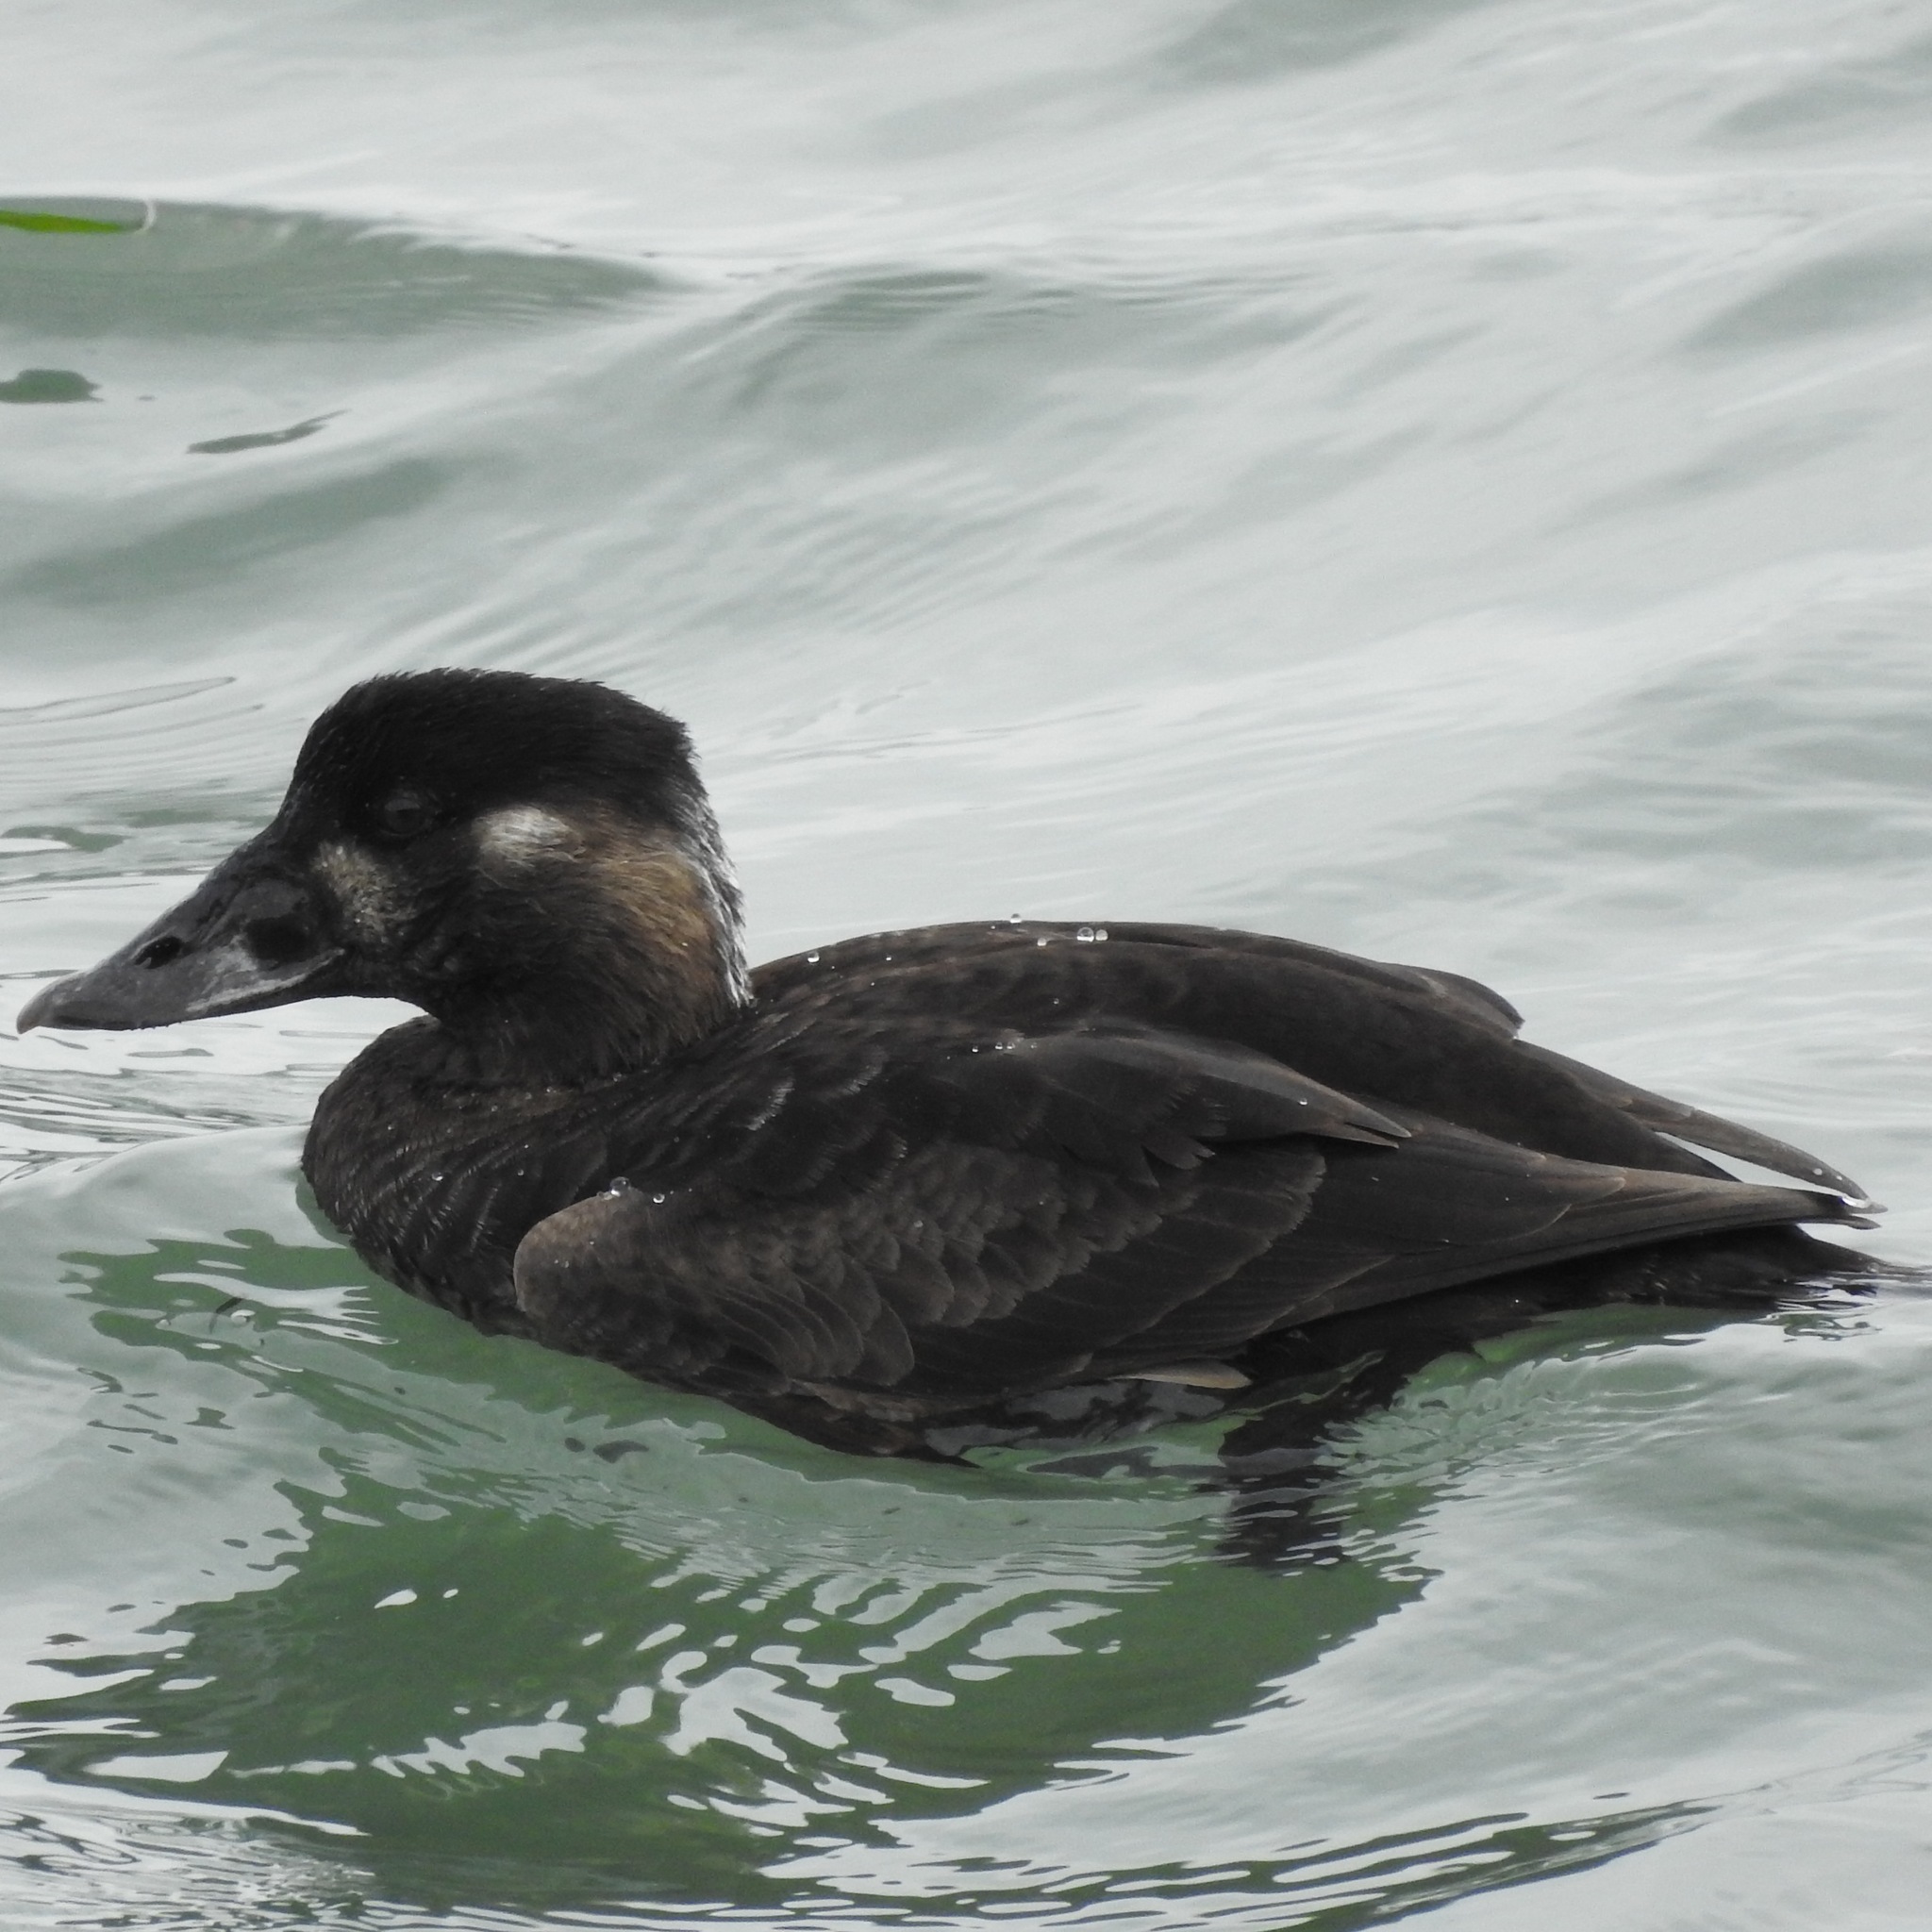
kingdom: Animalia
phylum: Chordata
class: Aves
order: Anseriformes
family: Anatidae
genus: Melanitta
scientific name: Melanitta perspicillata
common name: Surf scoter
